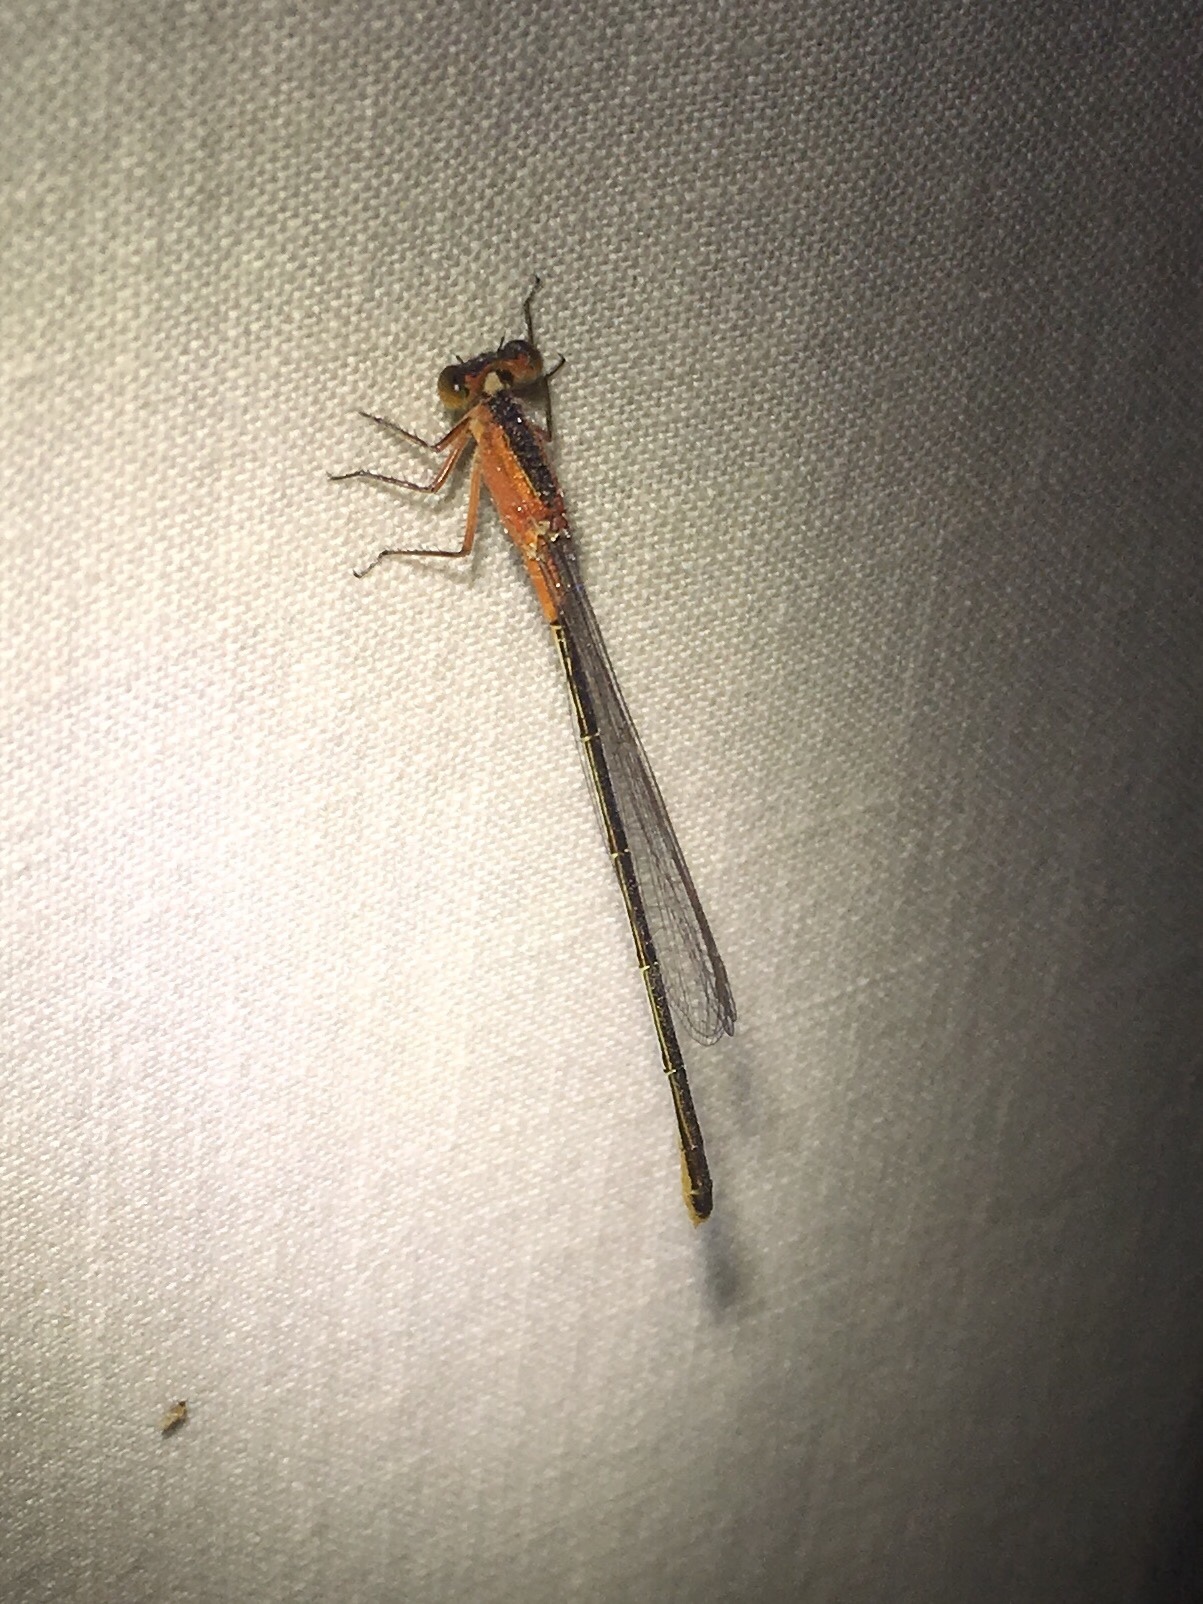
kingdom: Animalia
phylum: Arthropoda
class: Insecta
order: Odonata
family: Coenagrionidae
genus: Ischnura
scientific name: Ischnura ramburii
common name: Rambur's forktail
